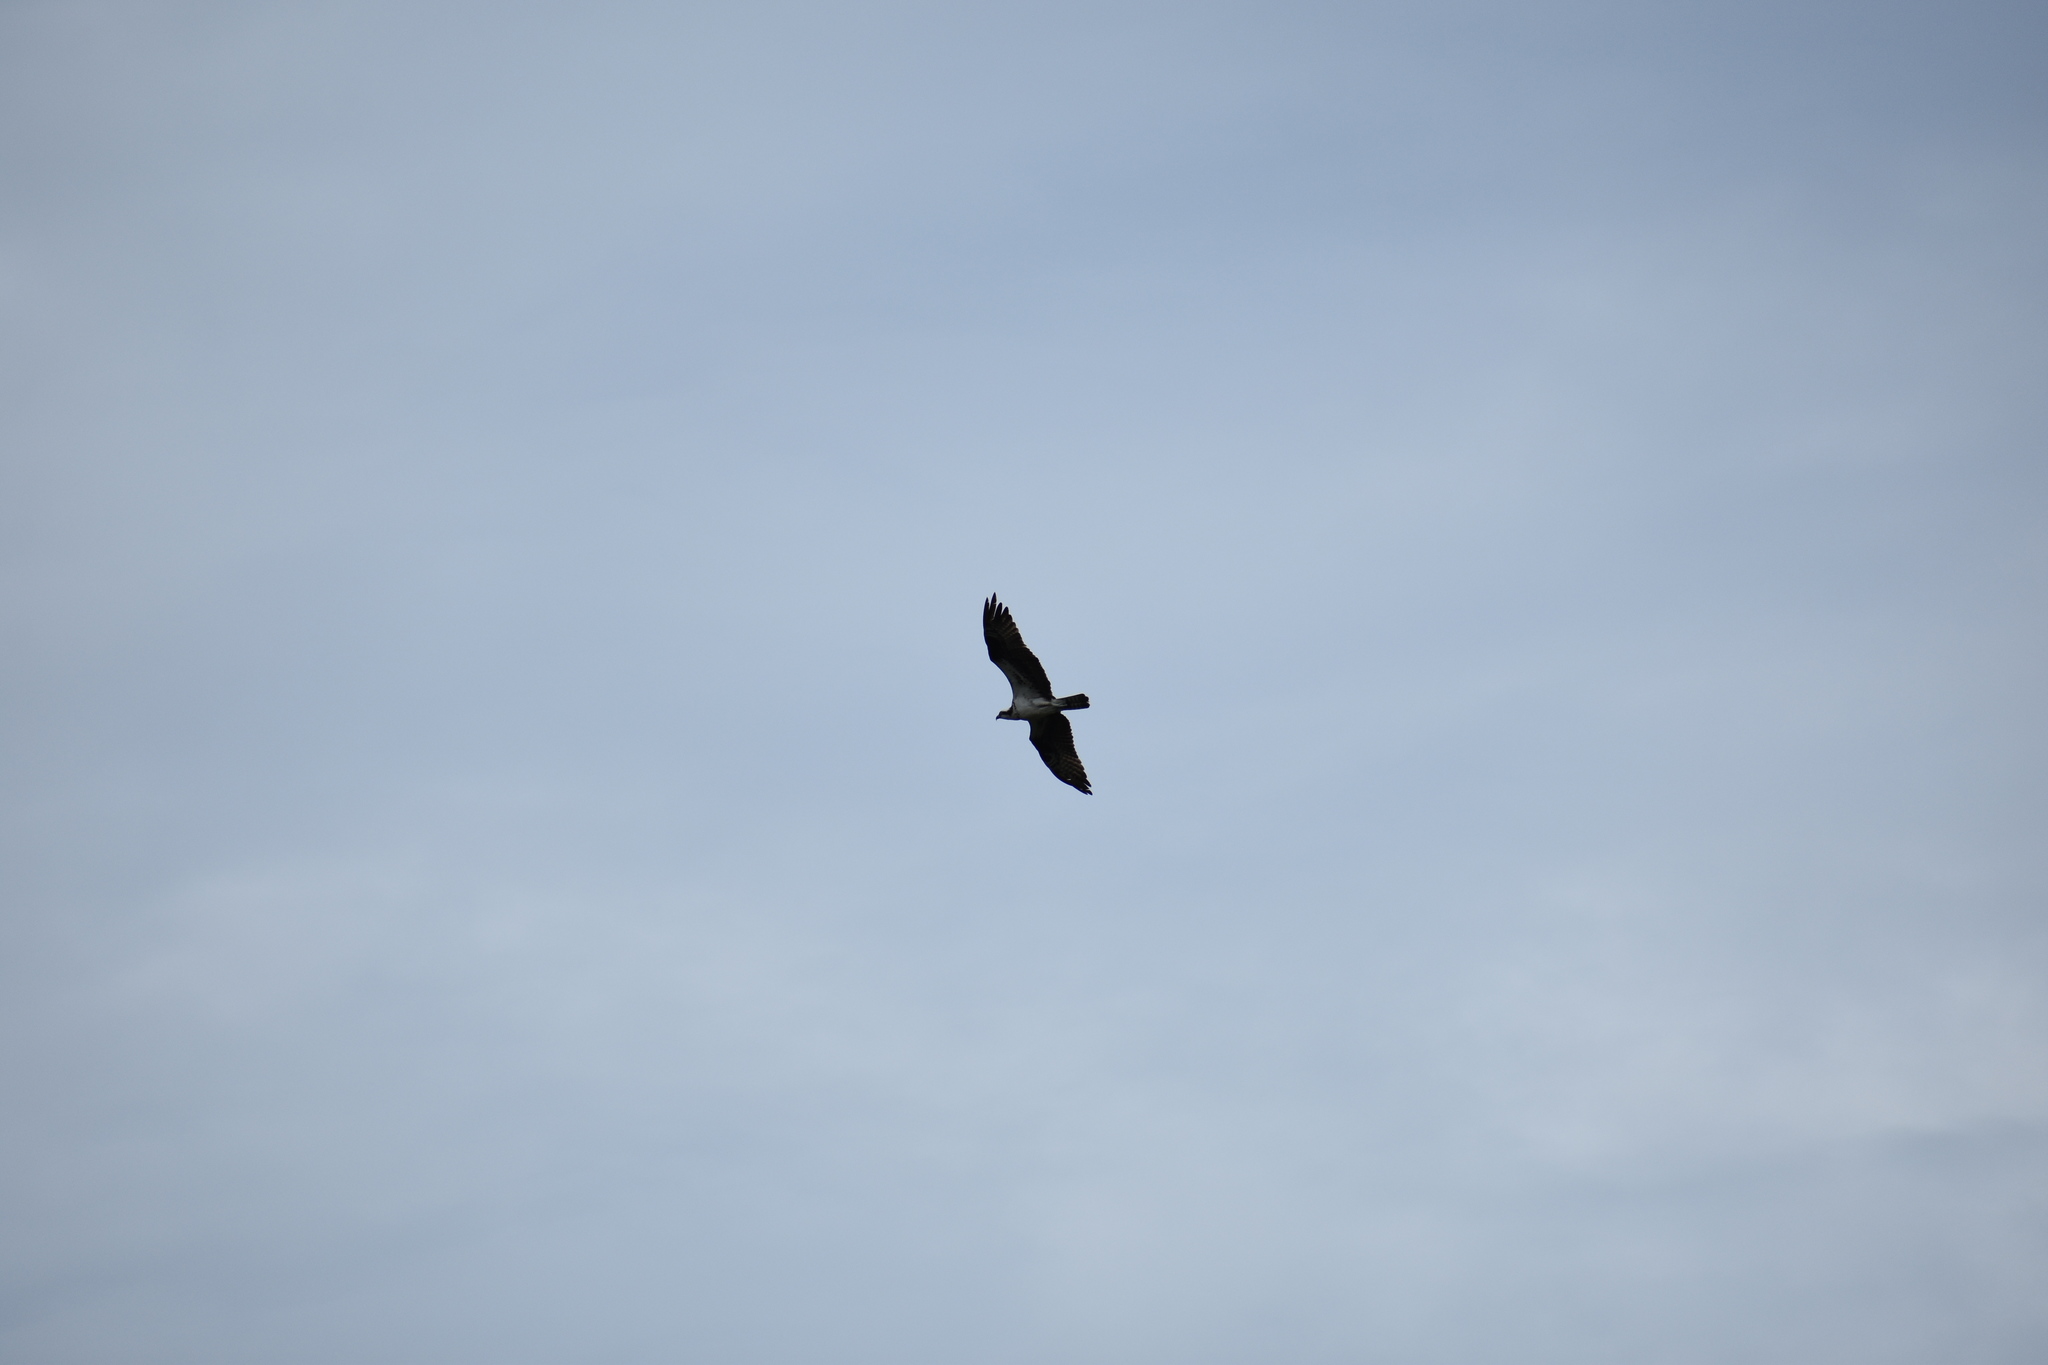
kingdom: Animalia
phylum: Chordata
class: Aves
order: Accipitriformes
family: Pandionidae
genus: Pandion
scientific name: Pandion haliaetus
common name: Osprey
